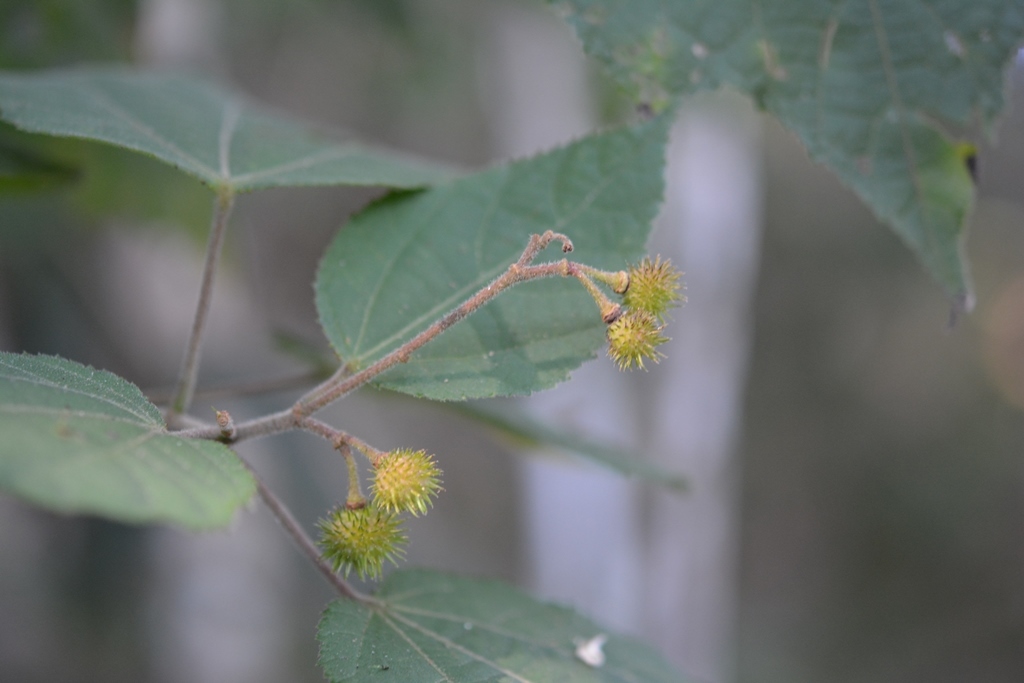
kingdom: Plantae
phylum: Tracheophyta
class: Magnoliopsida
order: Malvales
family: Malvaceae
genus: Triumfetta
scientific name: Triumfetta speciosa
